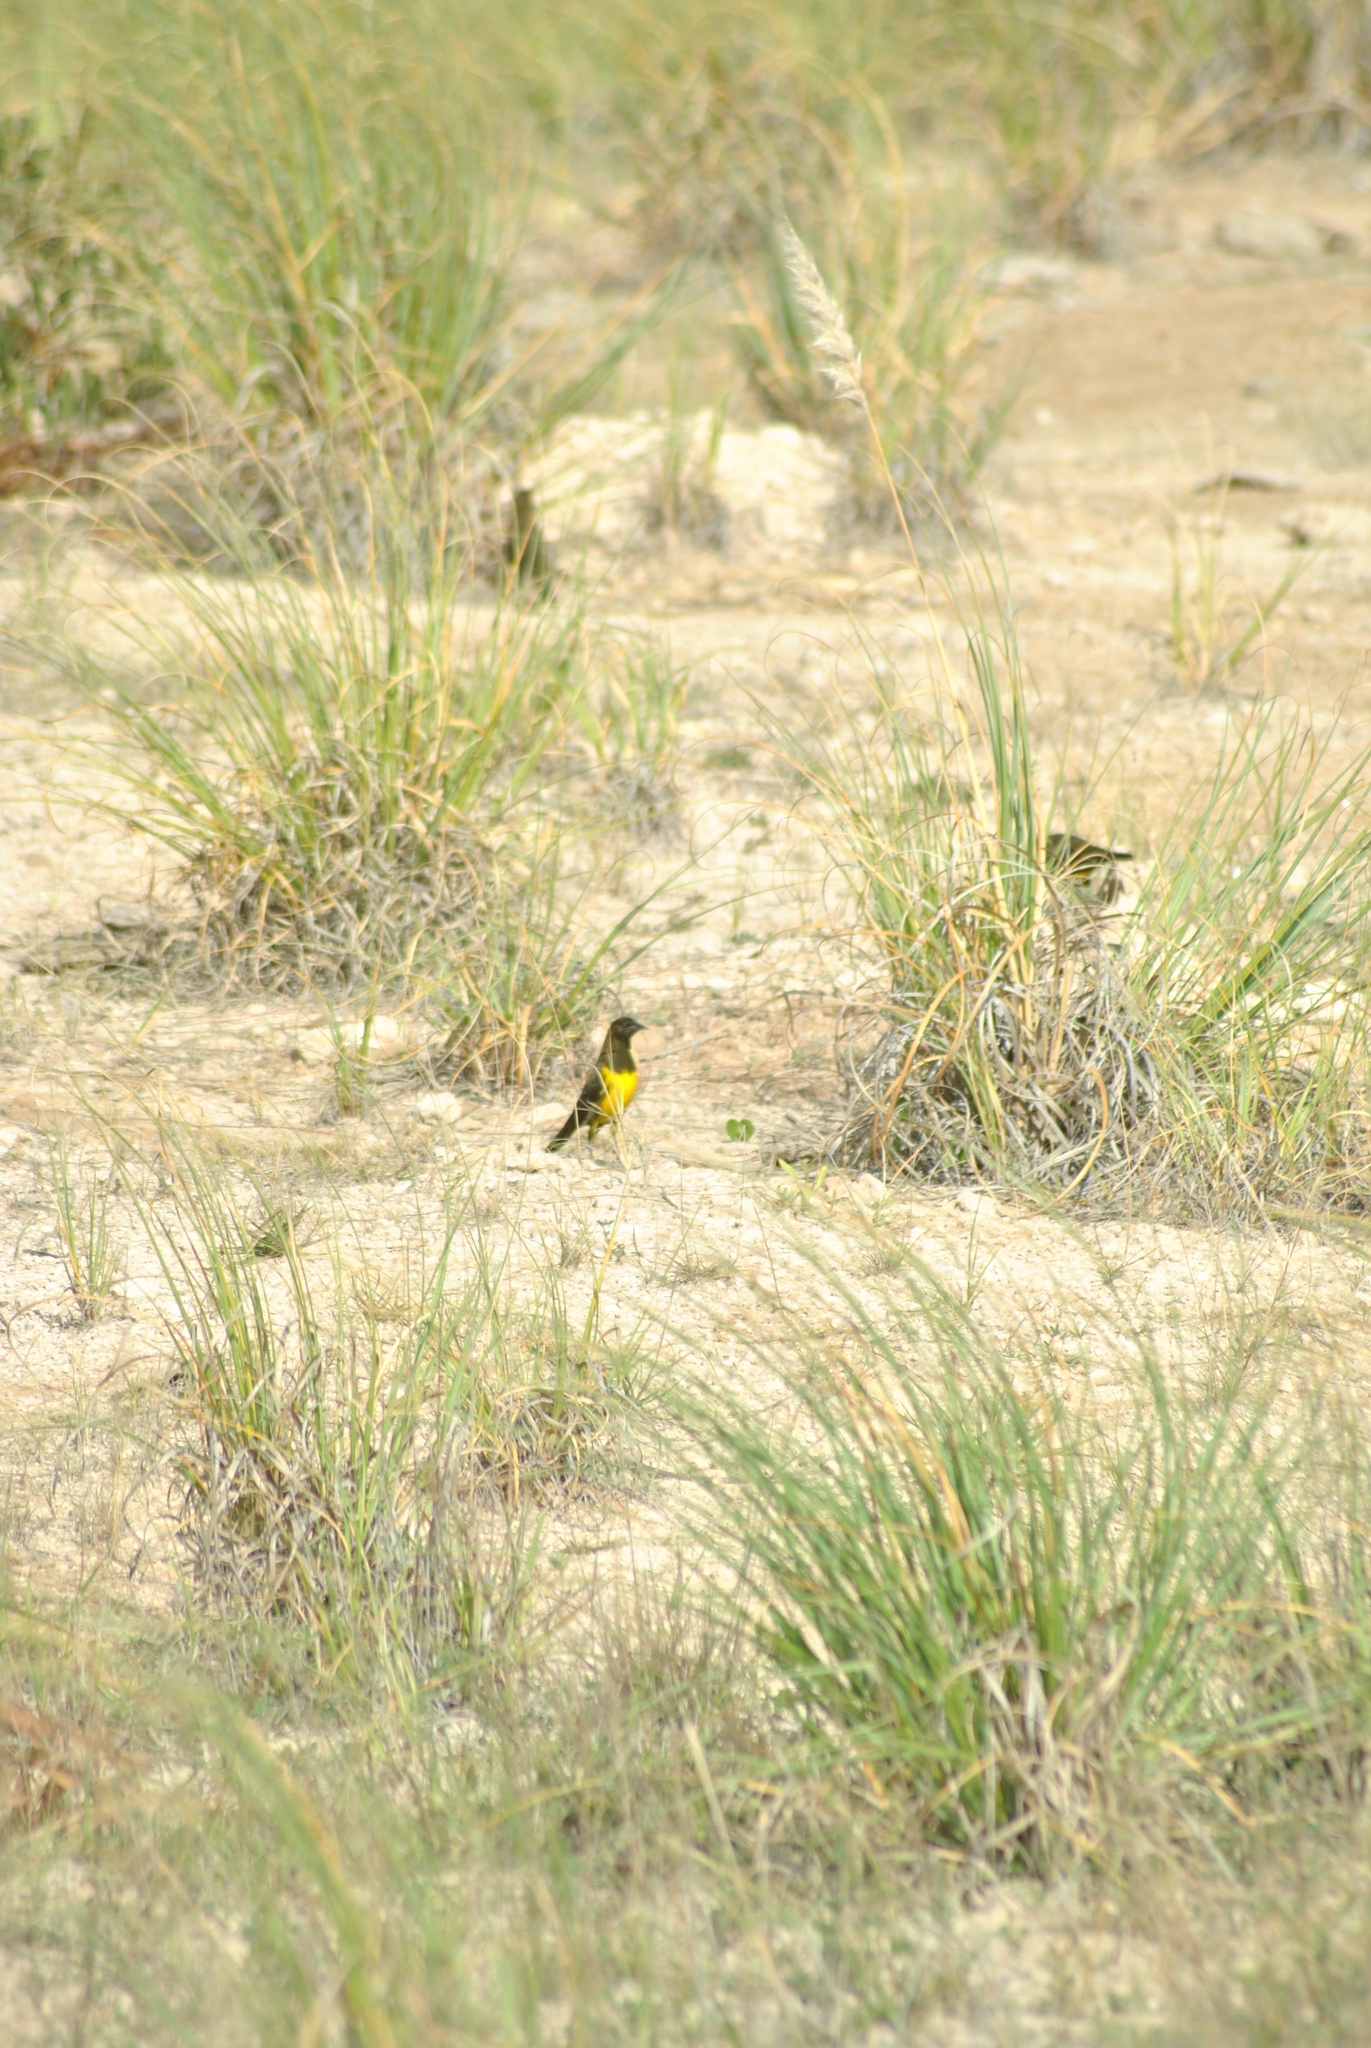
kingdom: Animalia
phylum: Chordata
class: Aves
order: Passeriformes
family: Icteridae
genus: Pseudoleistes
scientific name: Pseudoleistes virescens
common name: Brown-and-yellow marshbird
